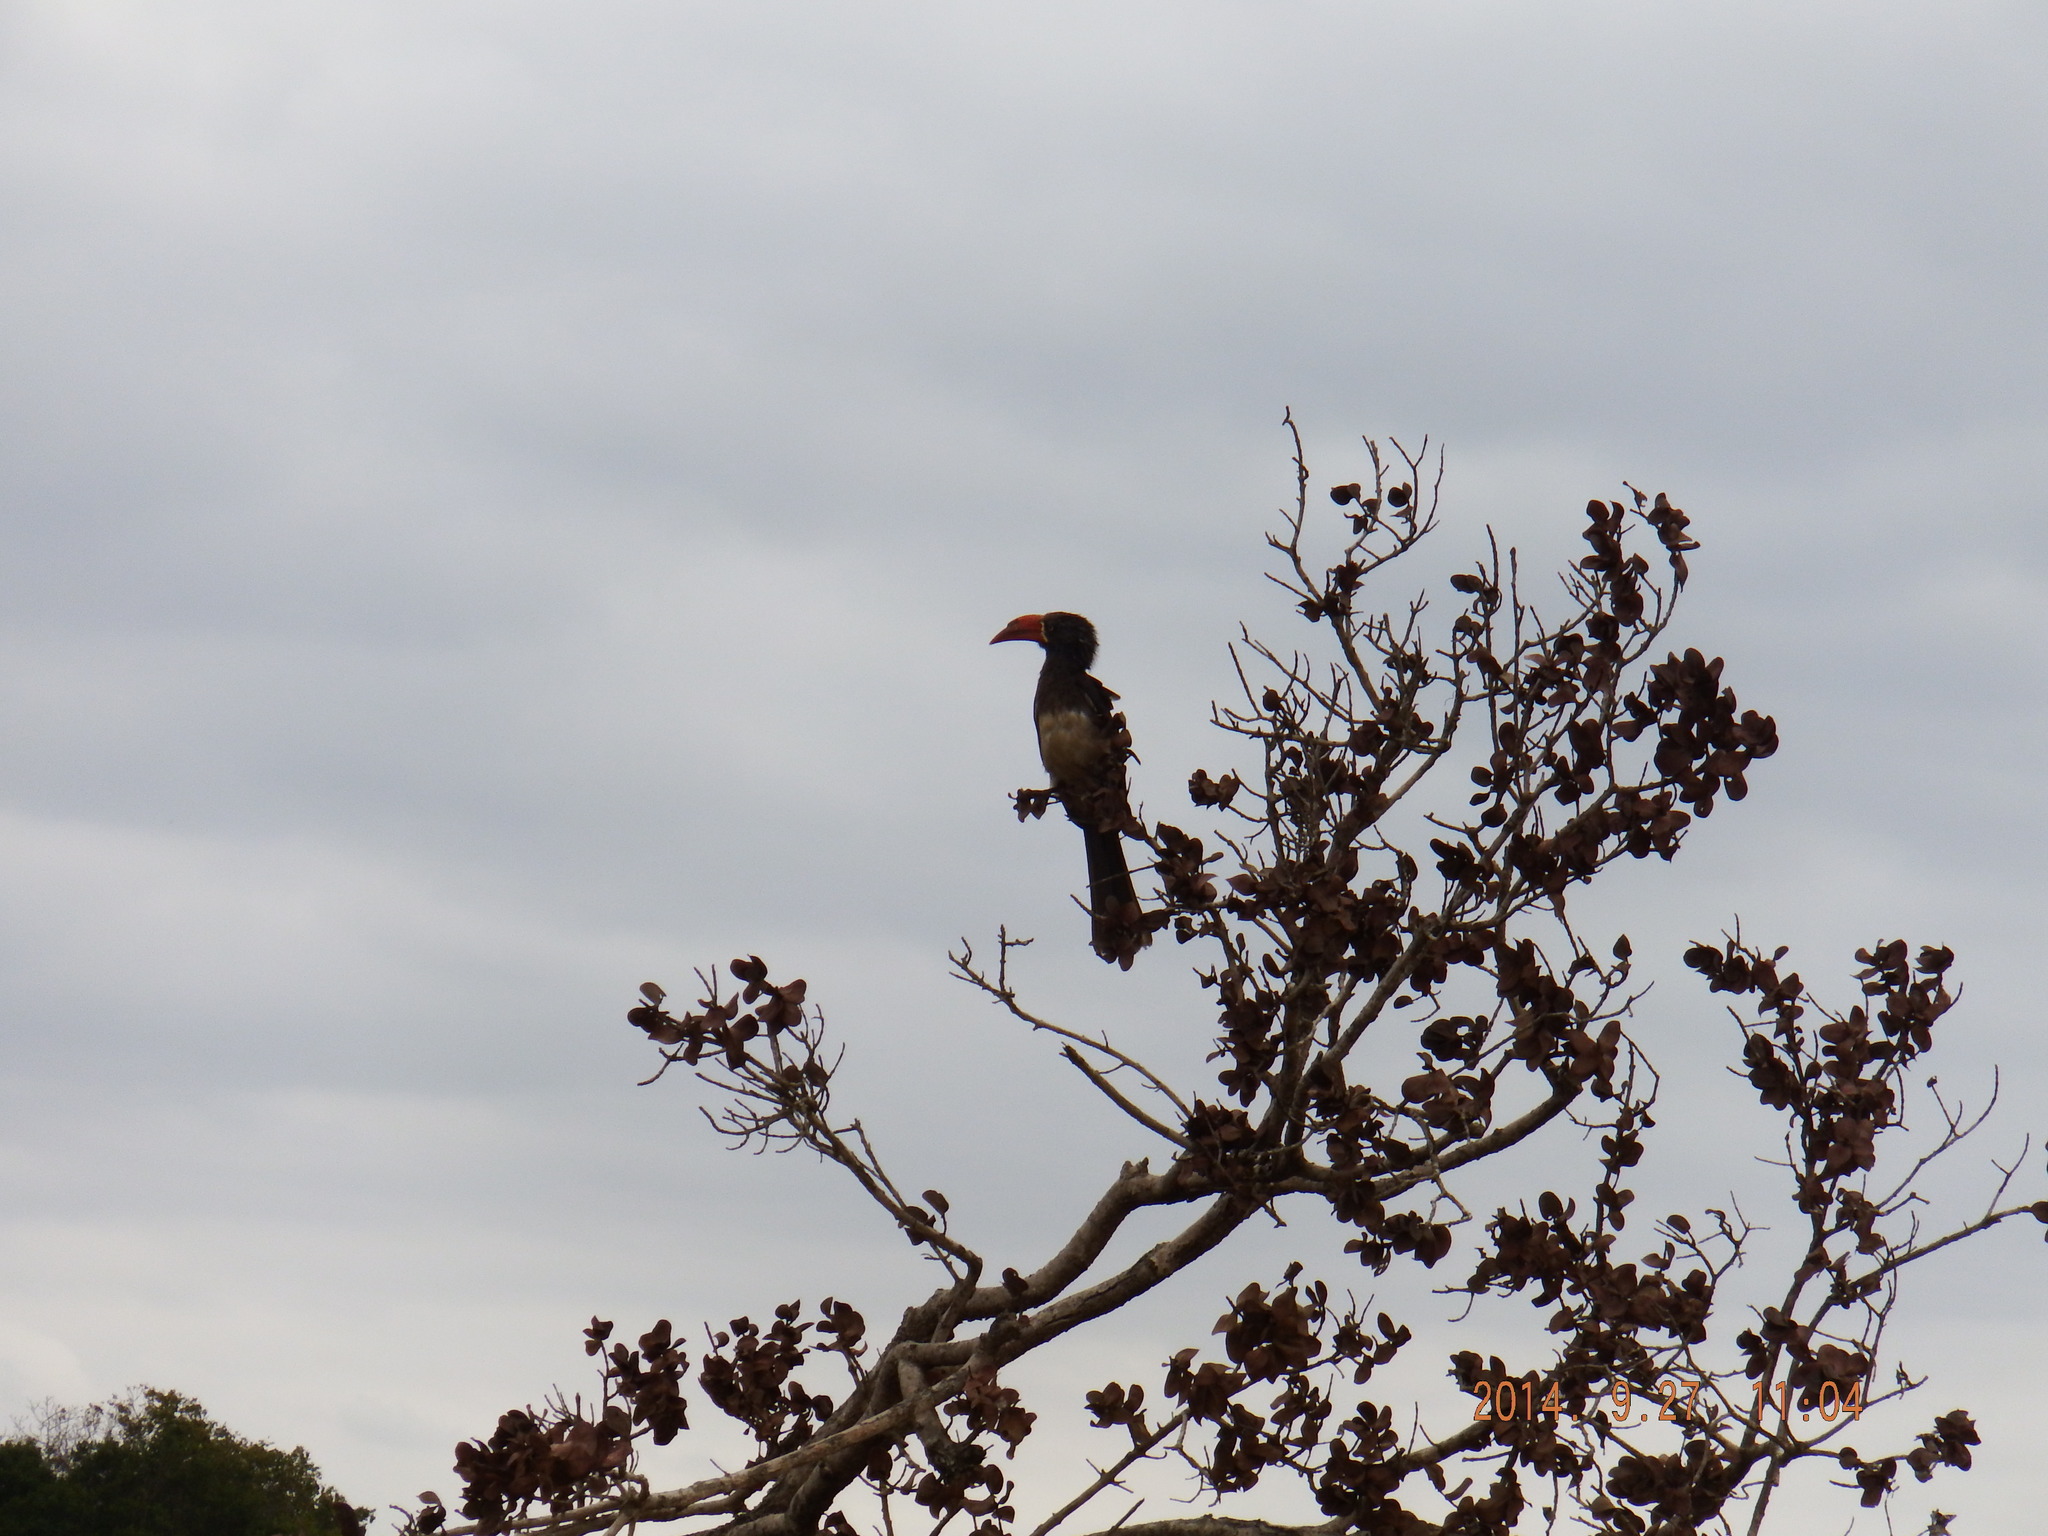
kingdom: Animalia
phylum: Chordata
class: Aves
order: Bucerotiformes
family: Bucerotidae
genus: Lophoceros
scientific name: Lophoceros alboterminatus
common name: Crowned hornbill
